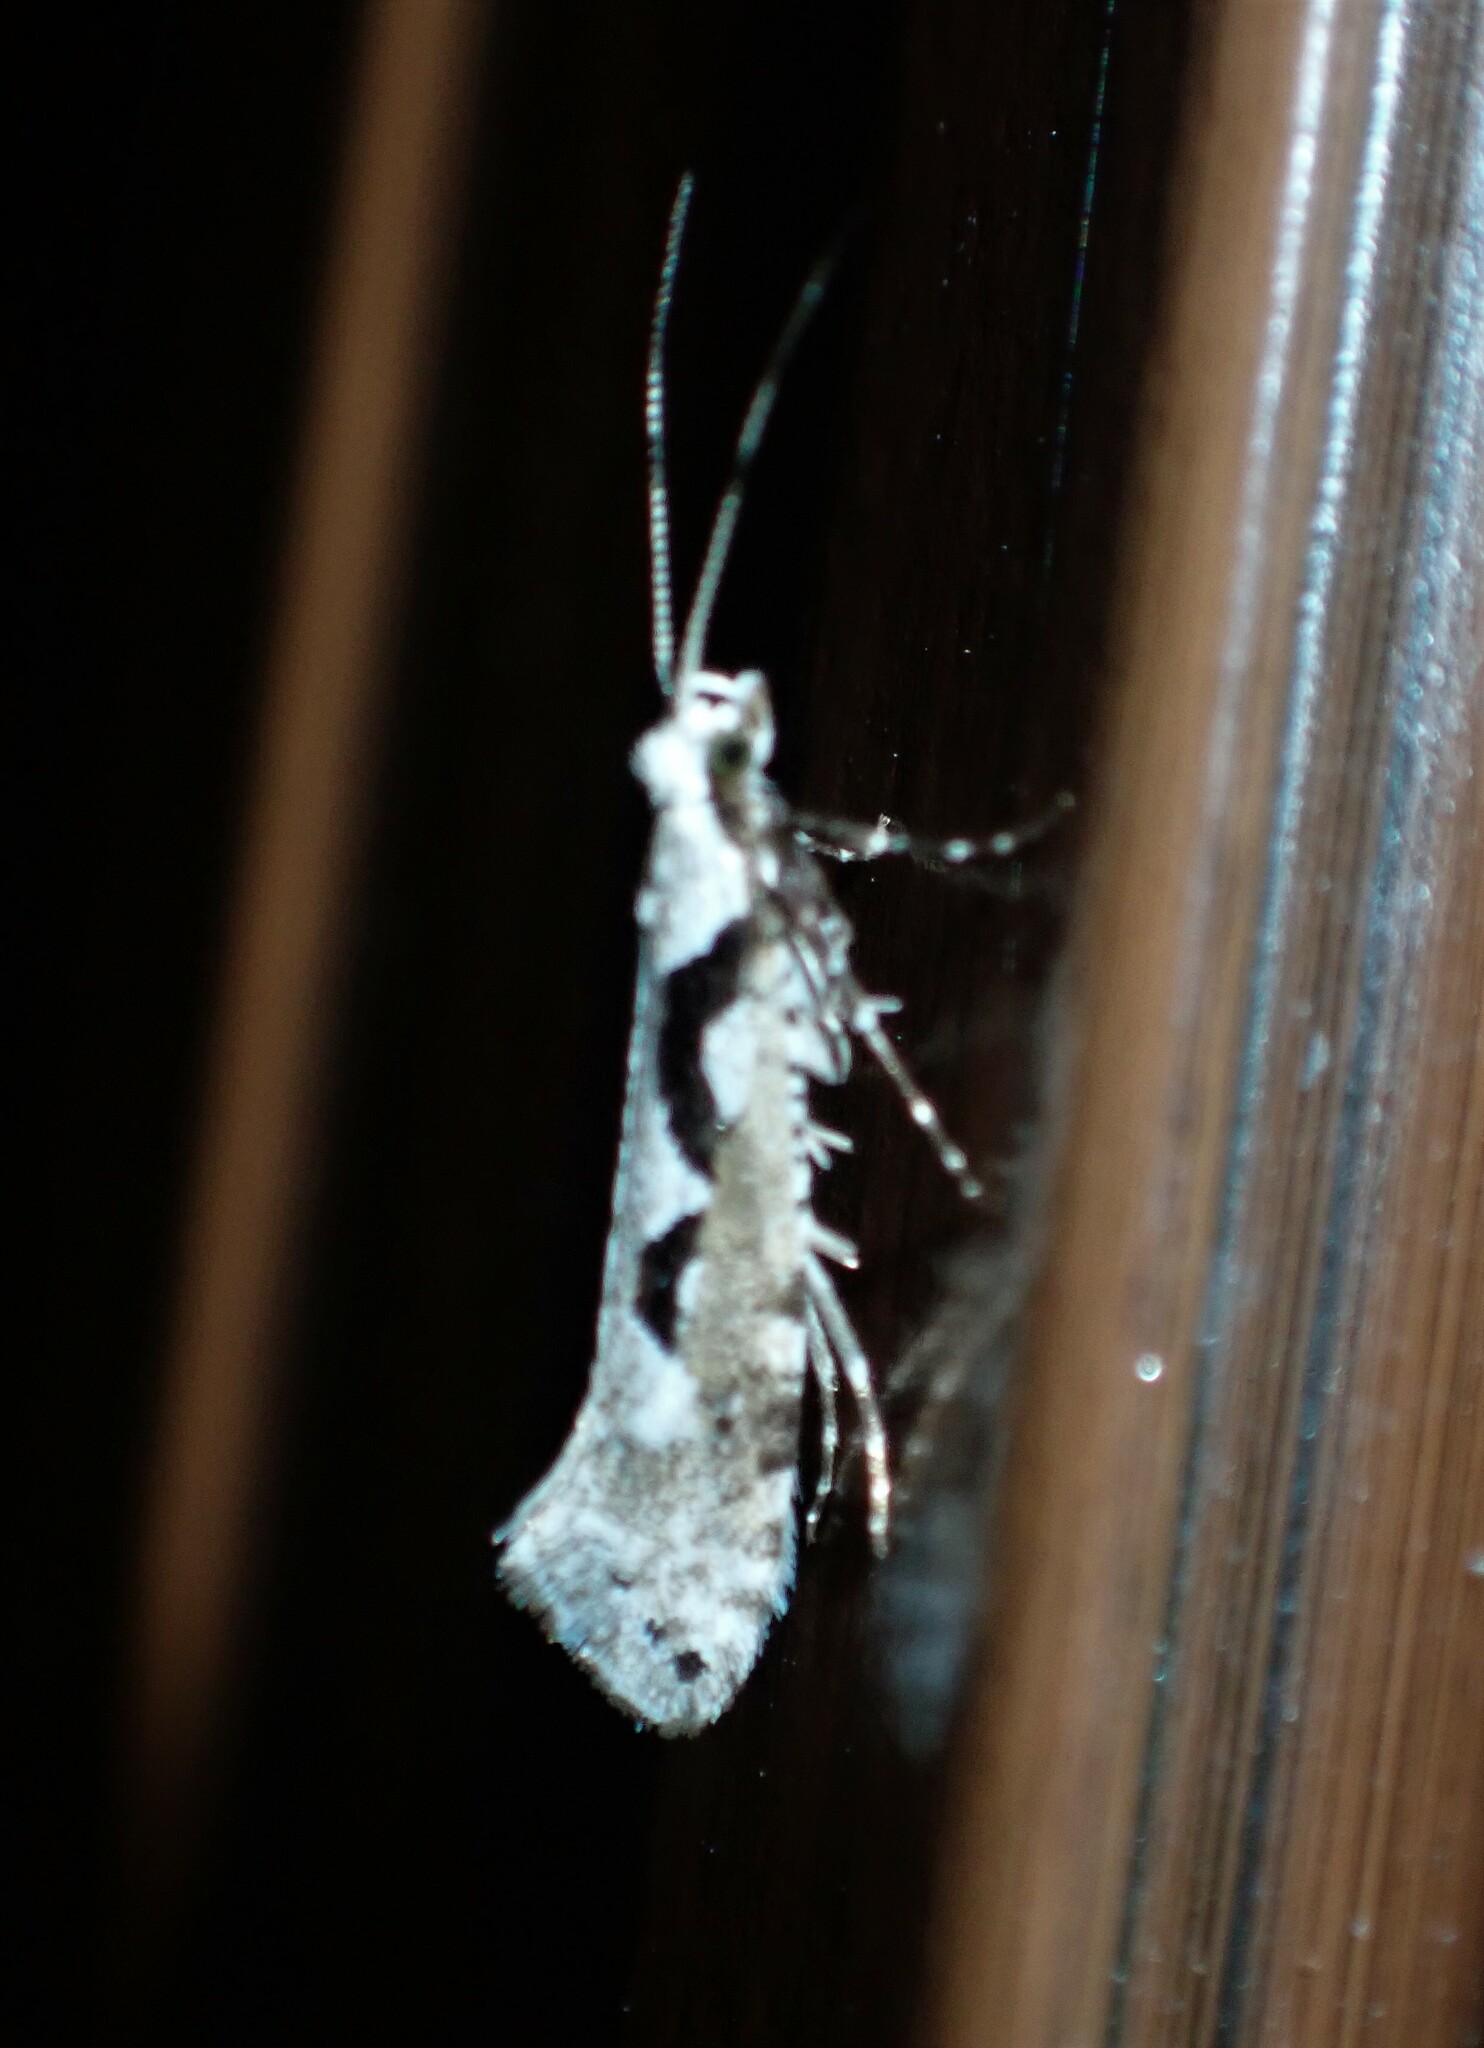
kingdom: Animalia
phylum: Arthropoda
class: Insecta
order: Lepidoptera
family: Plutellidae
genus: Rhigognostis
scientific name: Rhigognostis interrupta
